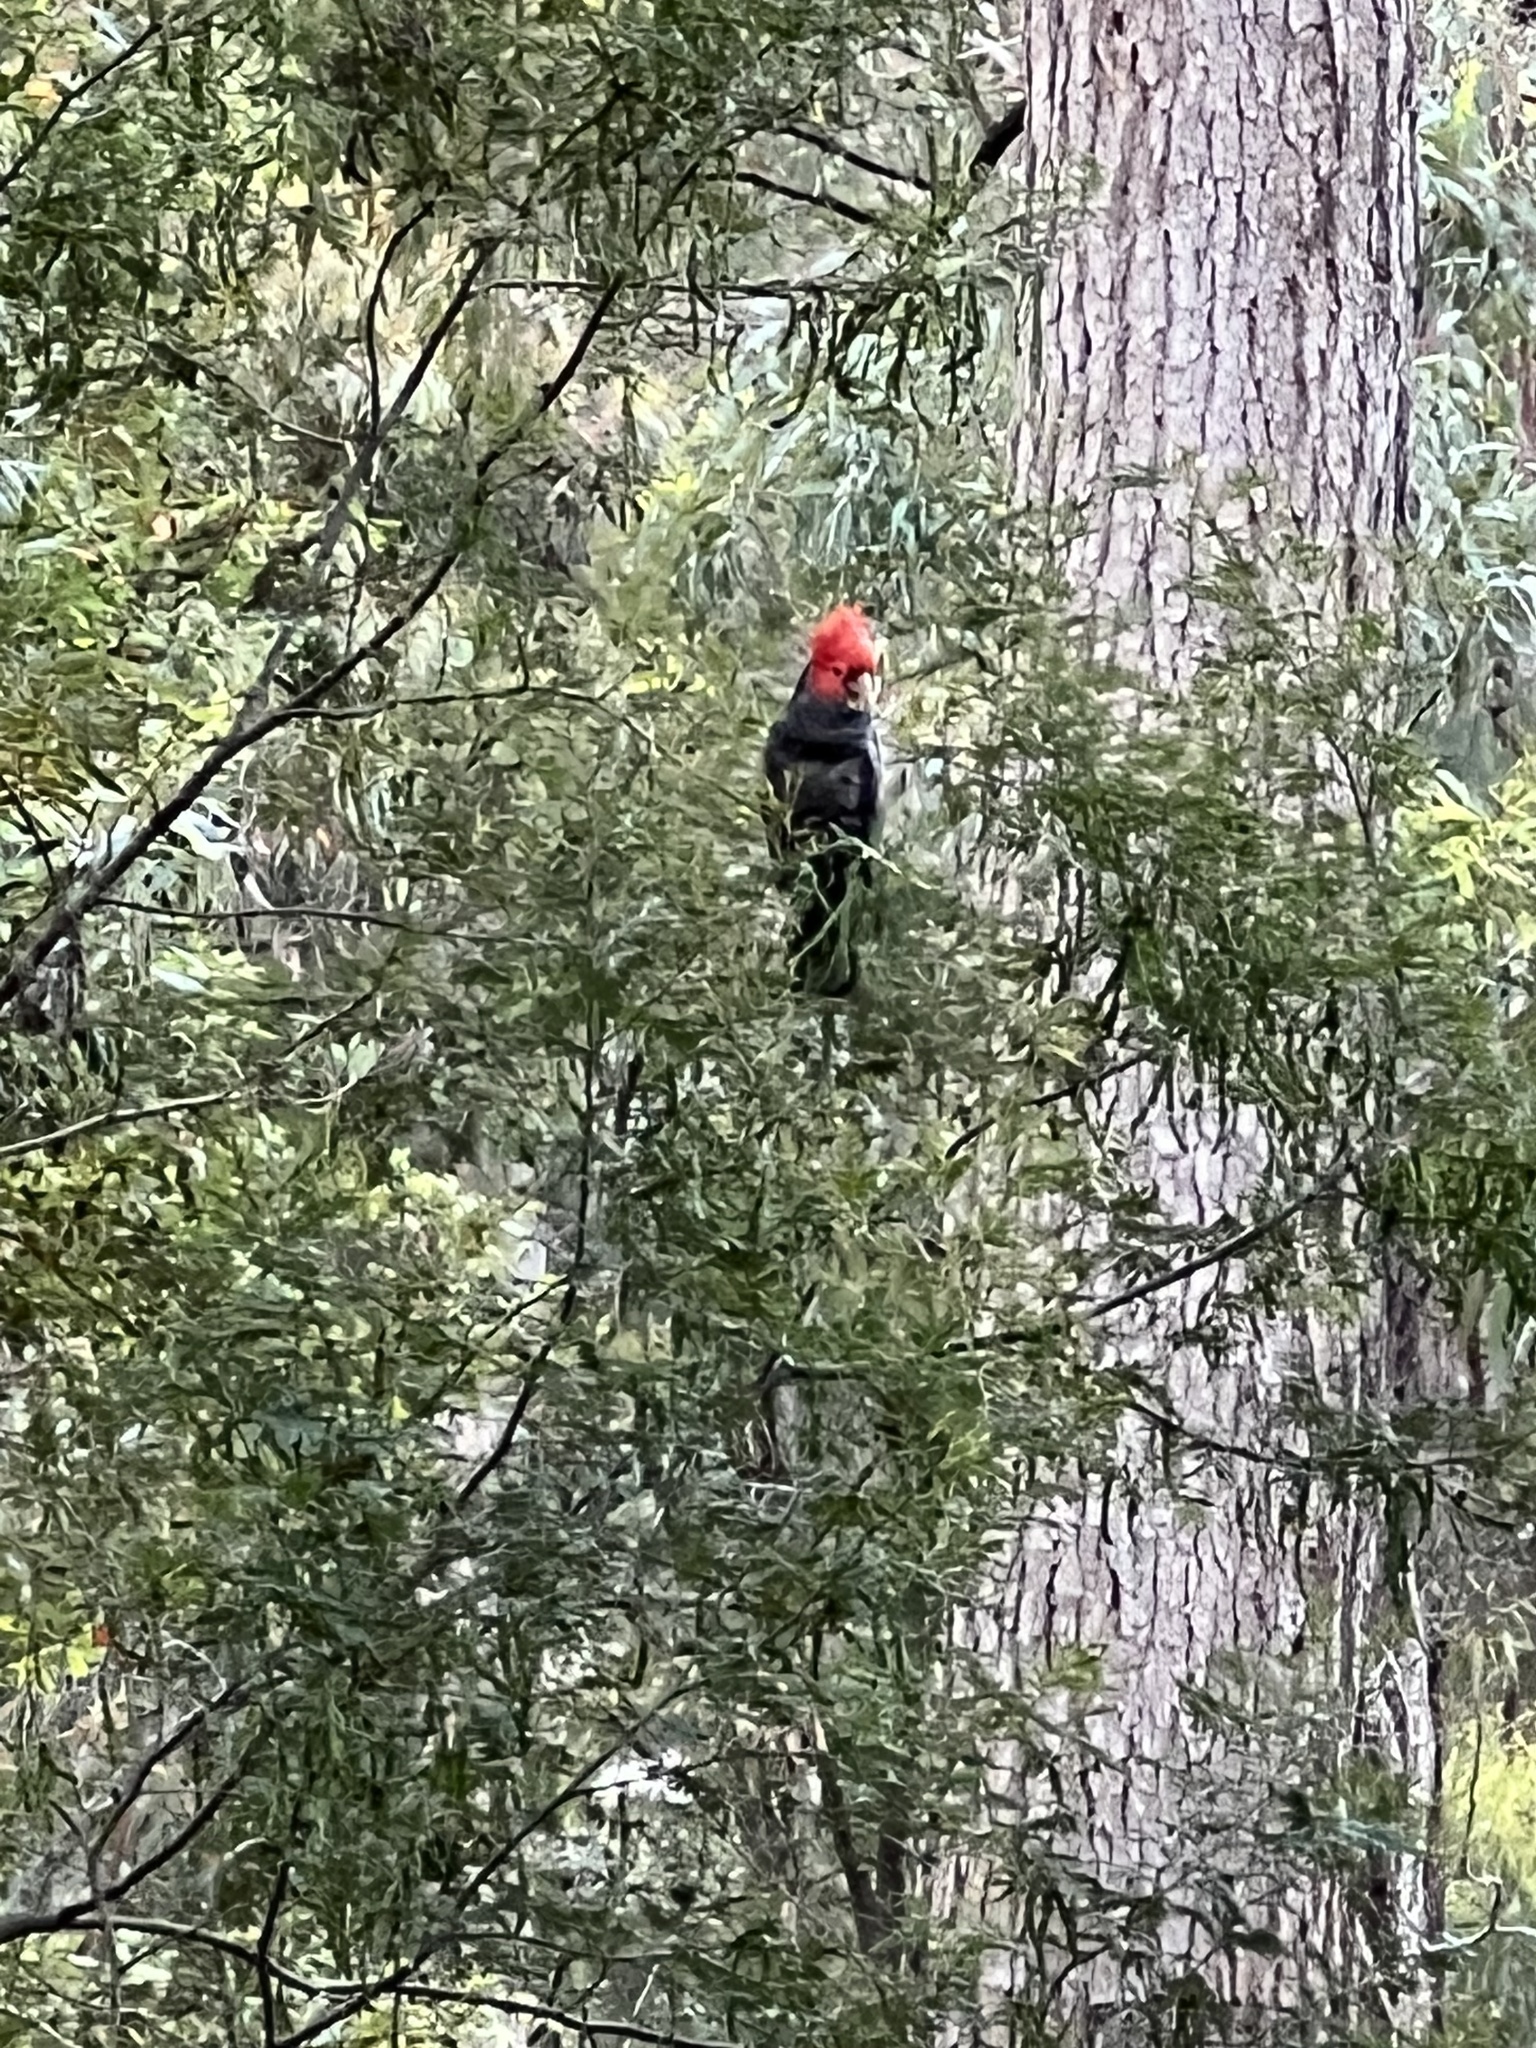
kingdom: Animalia
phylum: Chordata
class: Aves
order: Psittaciformes
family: Psittacidae
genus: Callocephalon
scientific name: Callocephalon fimbriatum
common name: Gang-gang cockatoo
